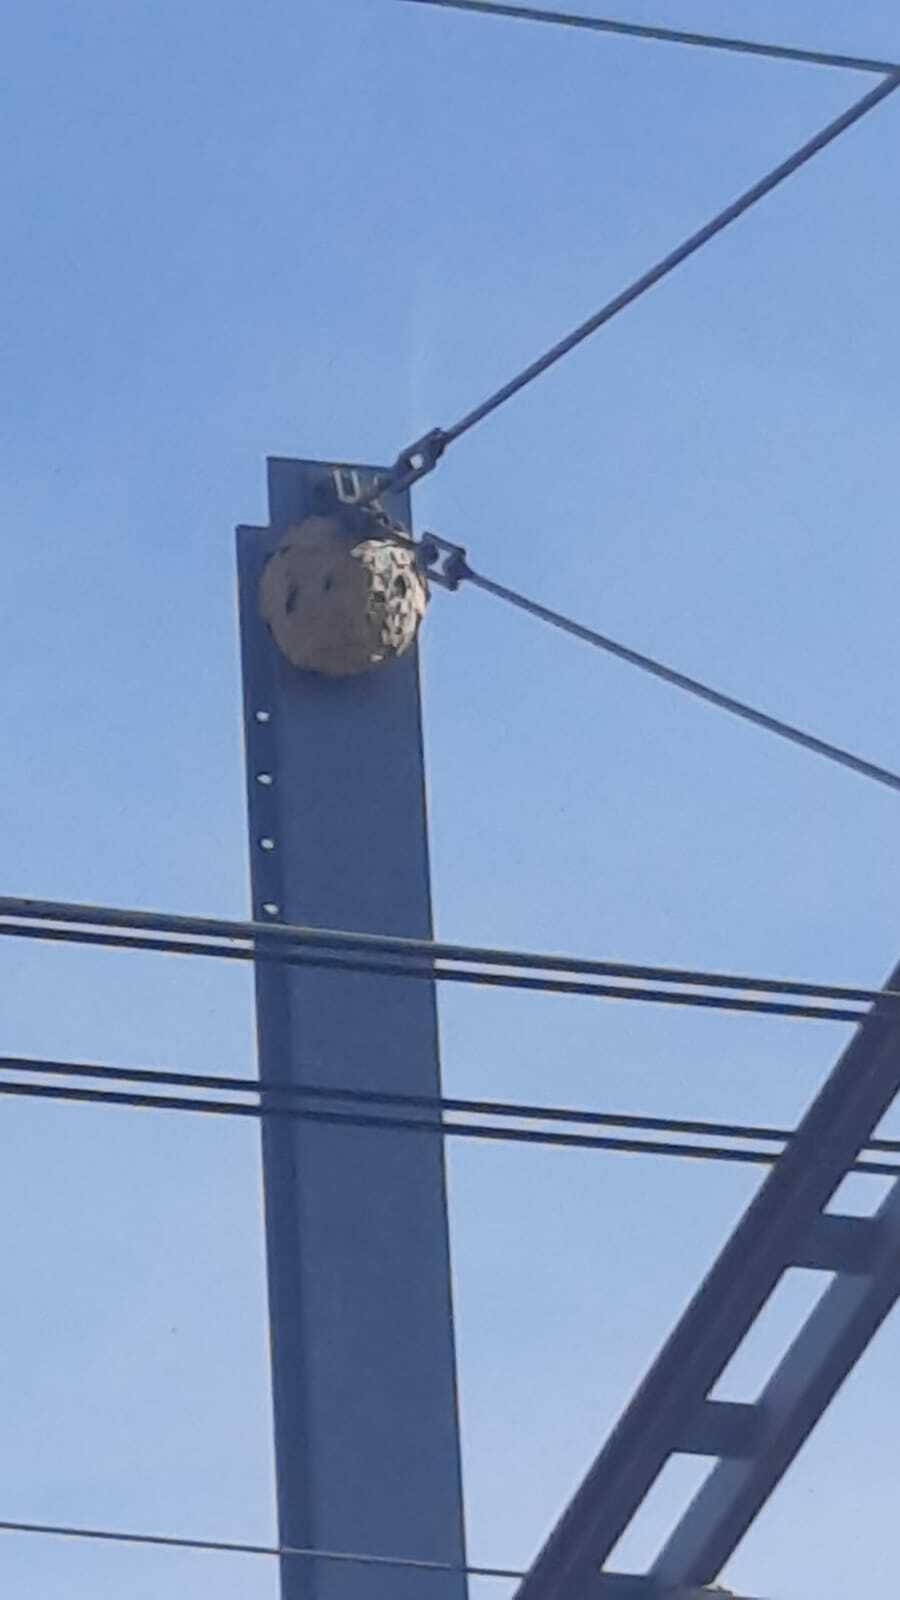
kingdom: Animalia
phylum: Arthropoda
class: Insecta
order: Hymenoptera
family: Vespidae
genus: Vespa
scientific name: Vespa velutina
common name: Asian hornet
